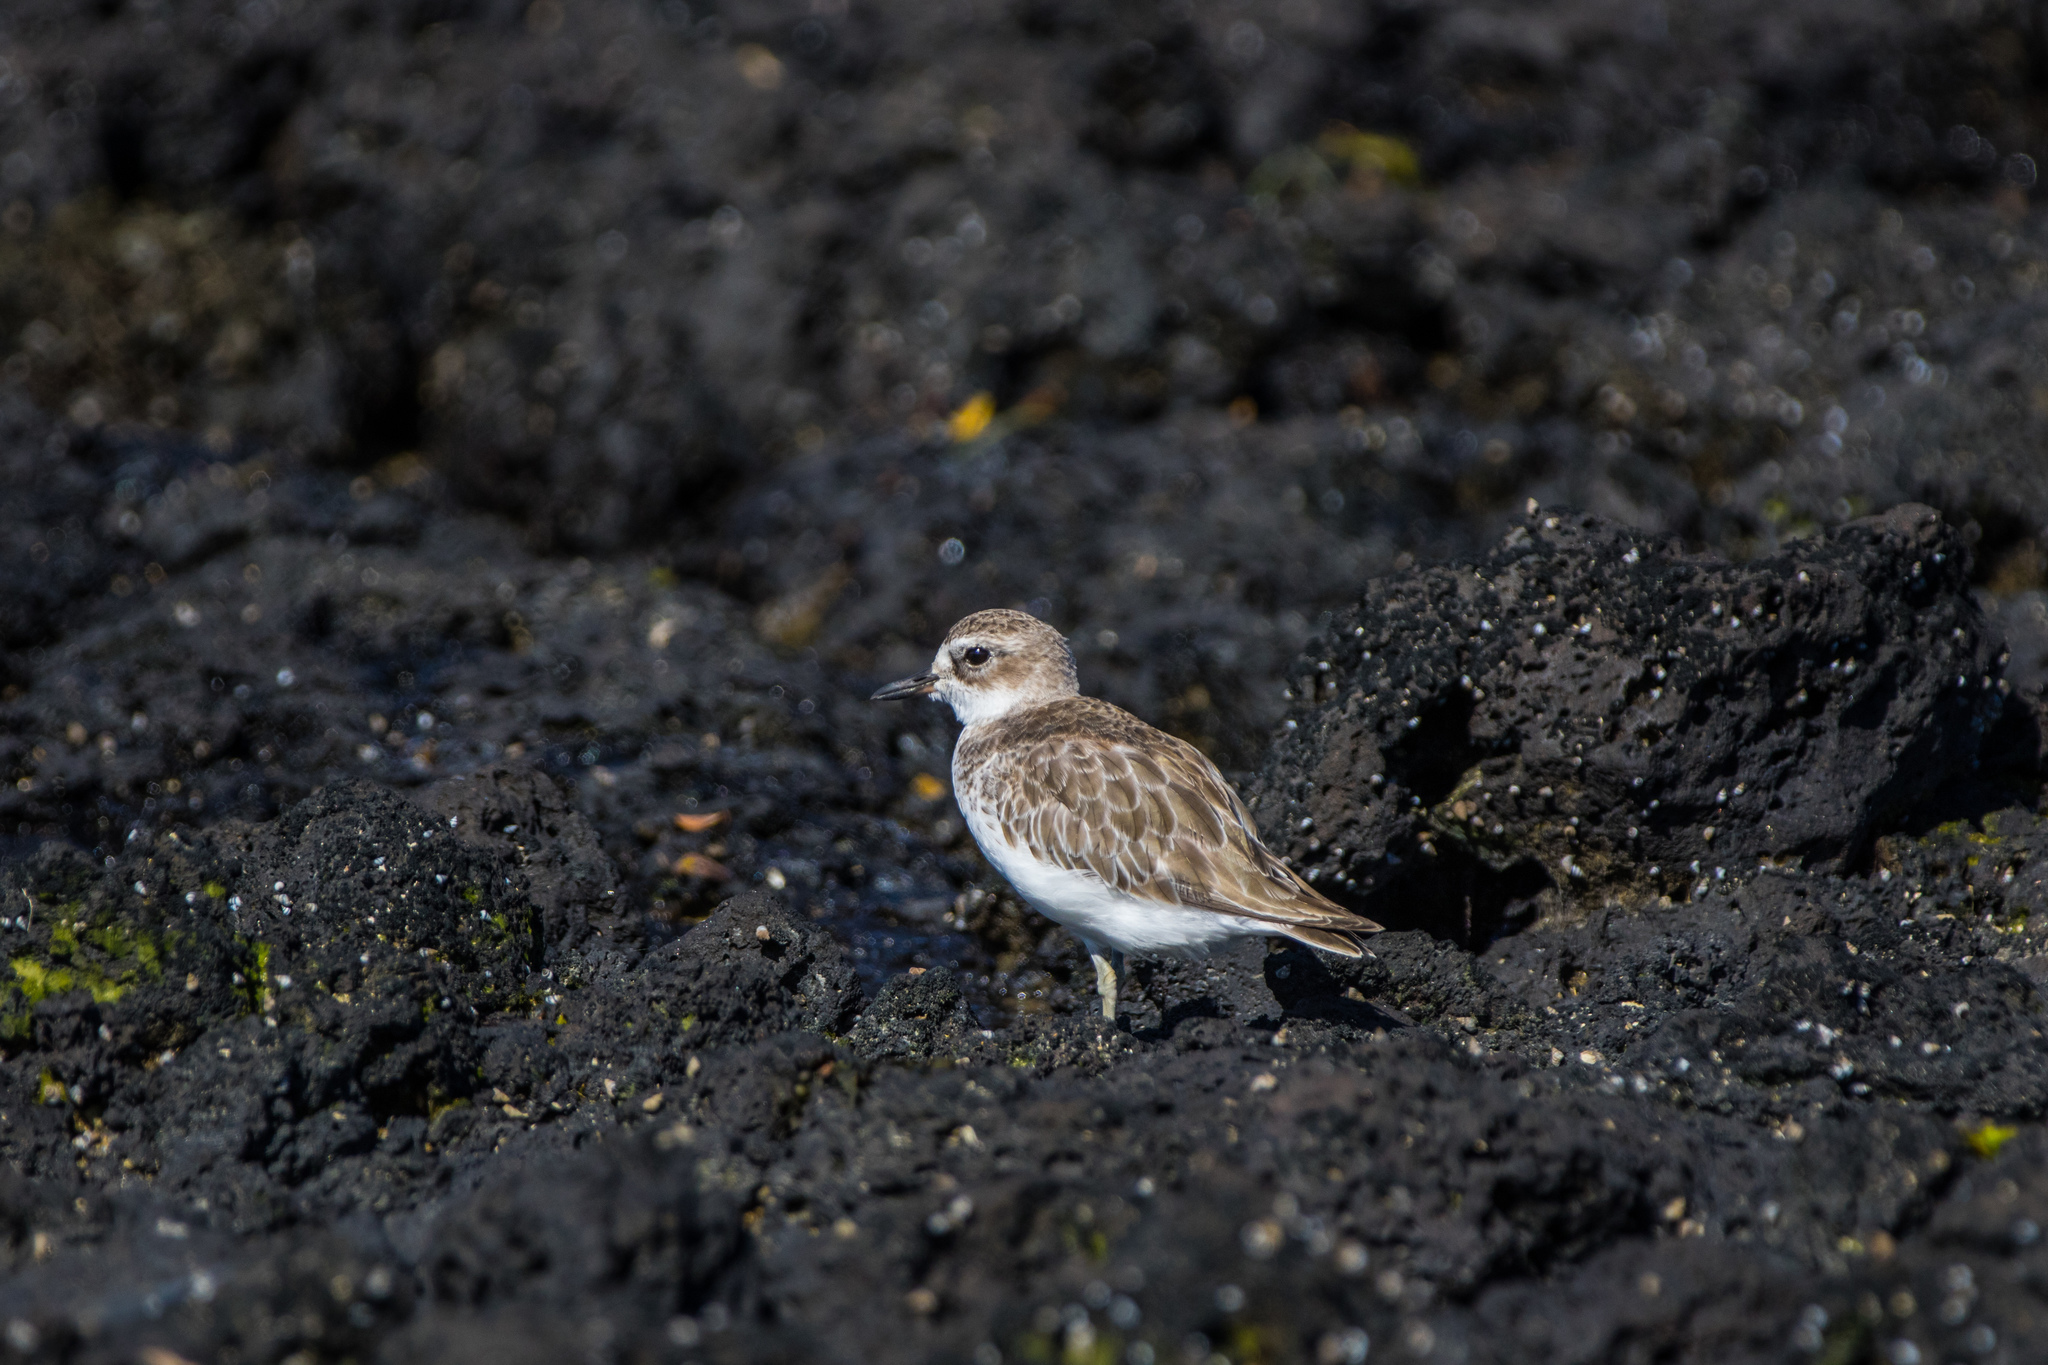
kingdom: Animalia
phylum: Chordata
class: Aves
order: Charadriiformes
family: Charadriidae
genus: Anarhynchus
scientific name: Anarhynchus
